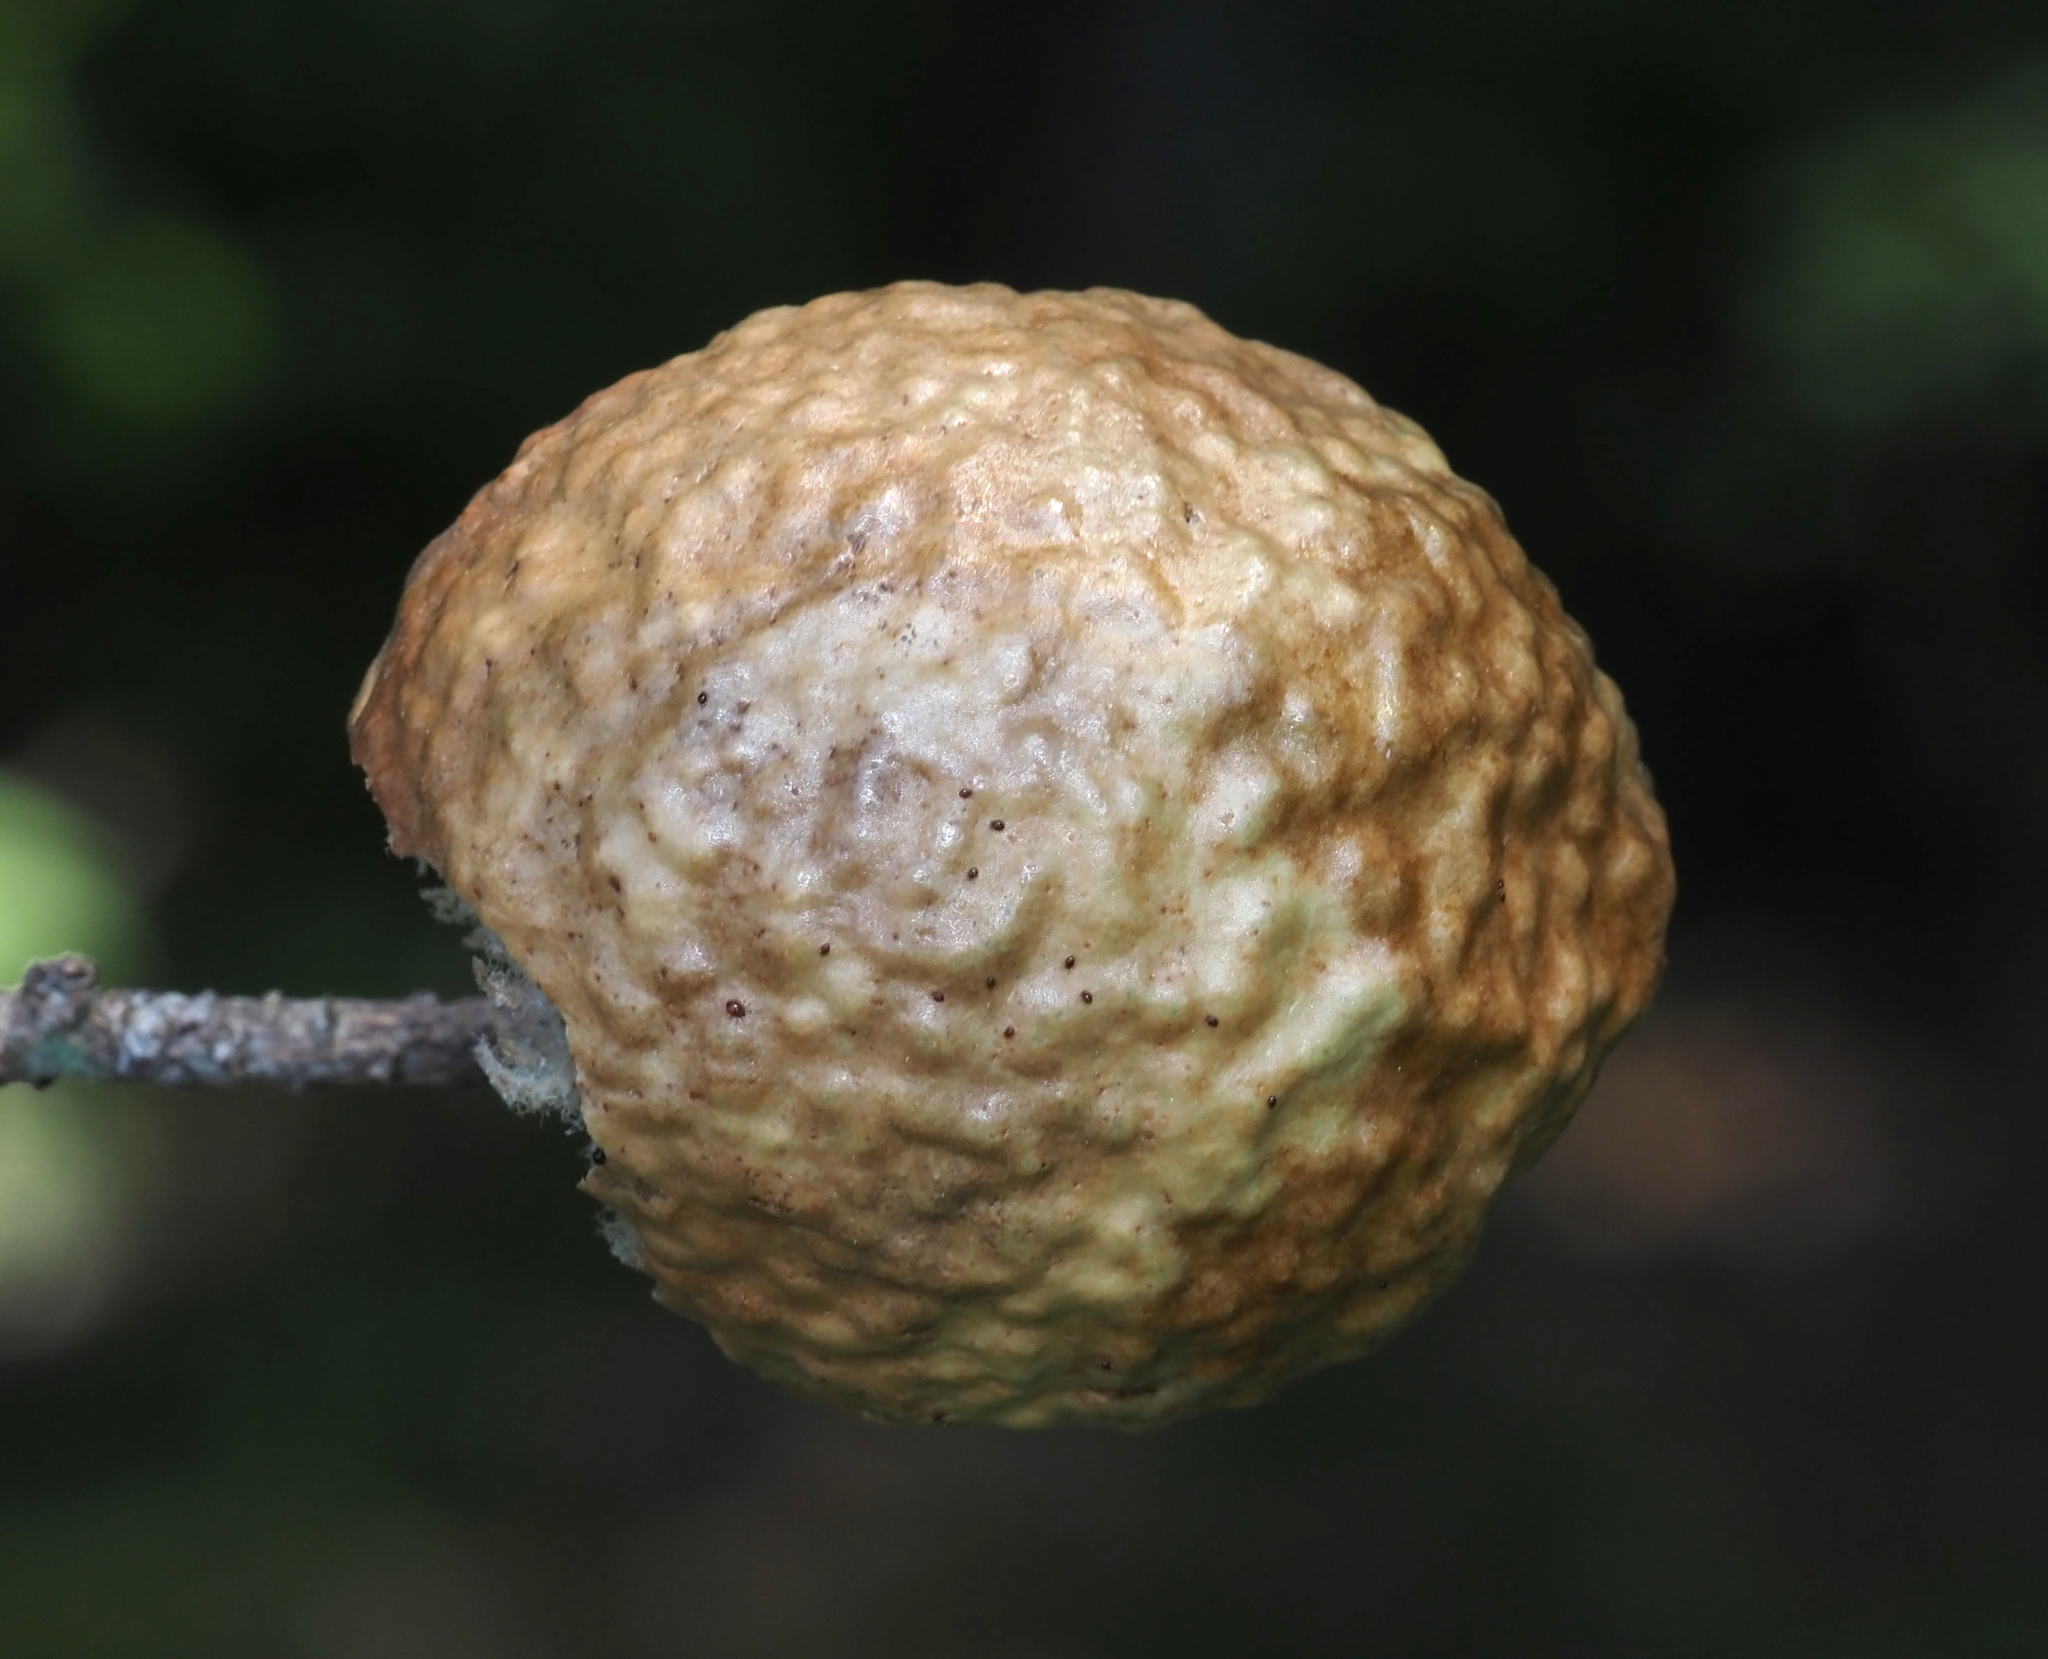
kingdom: Animalia
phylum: Arthropoda
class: Insecta
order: Hymenoptera
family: Cynipidae
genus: Amphibolips
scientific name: Amphibolips
